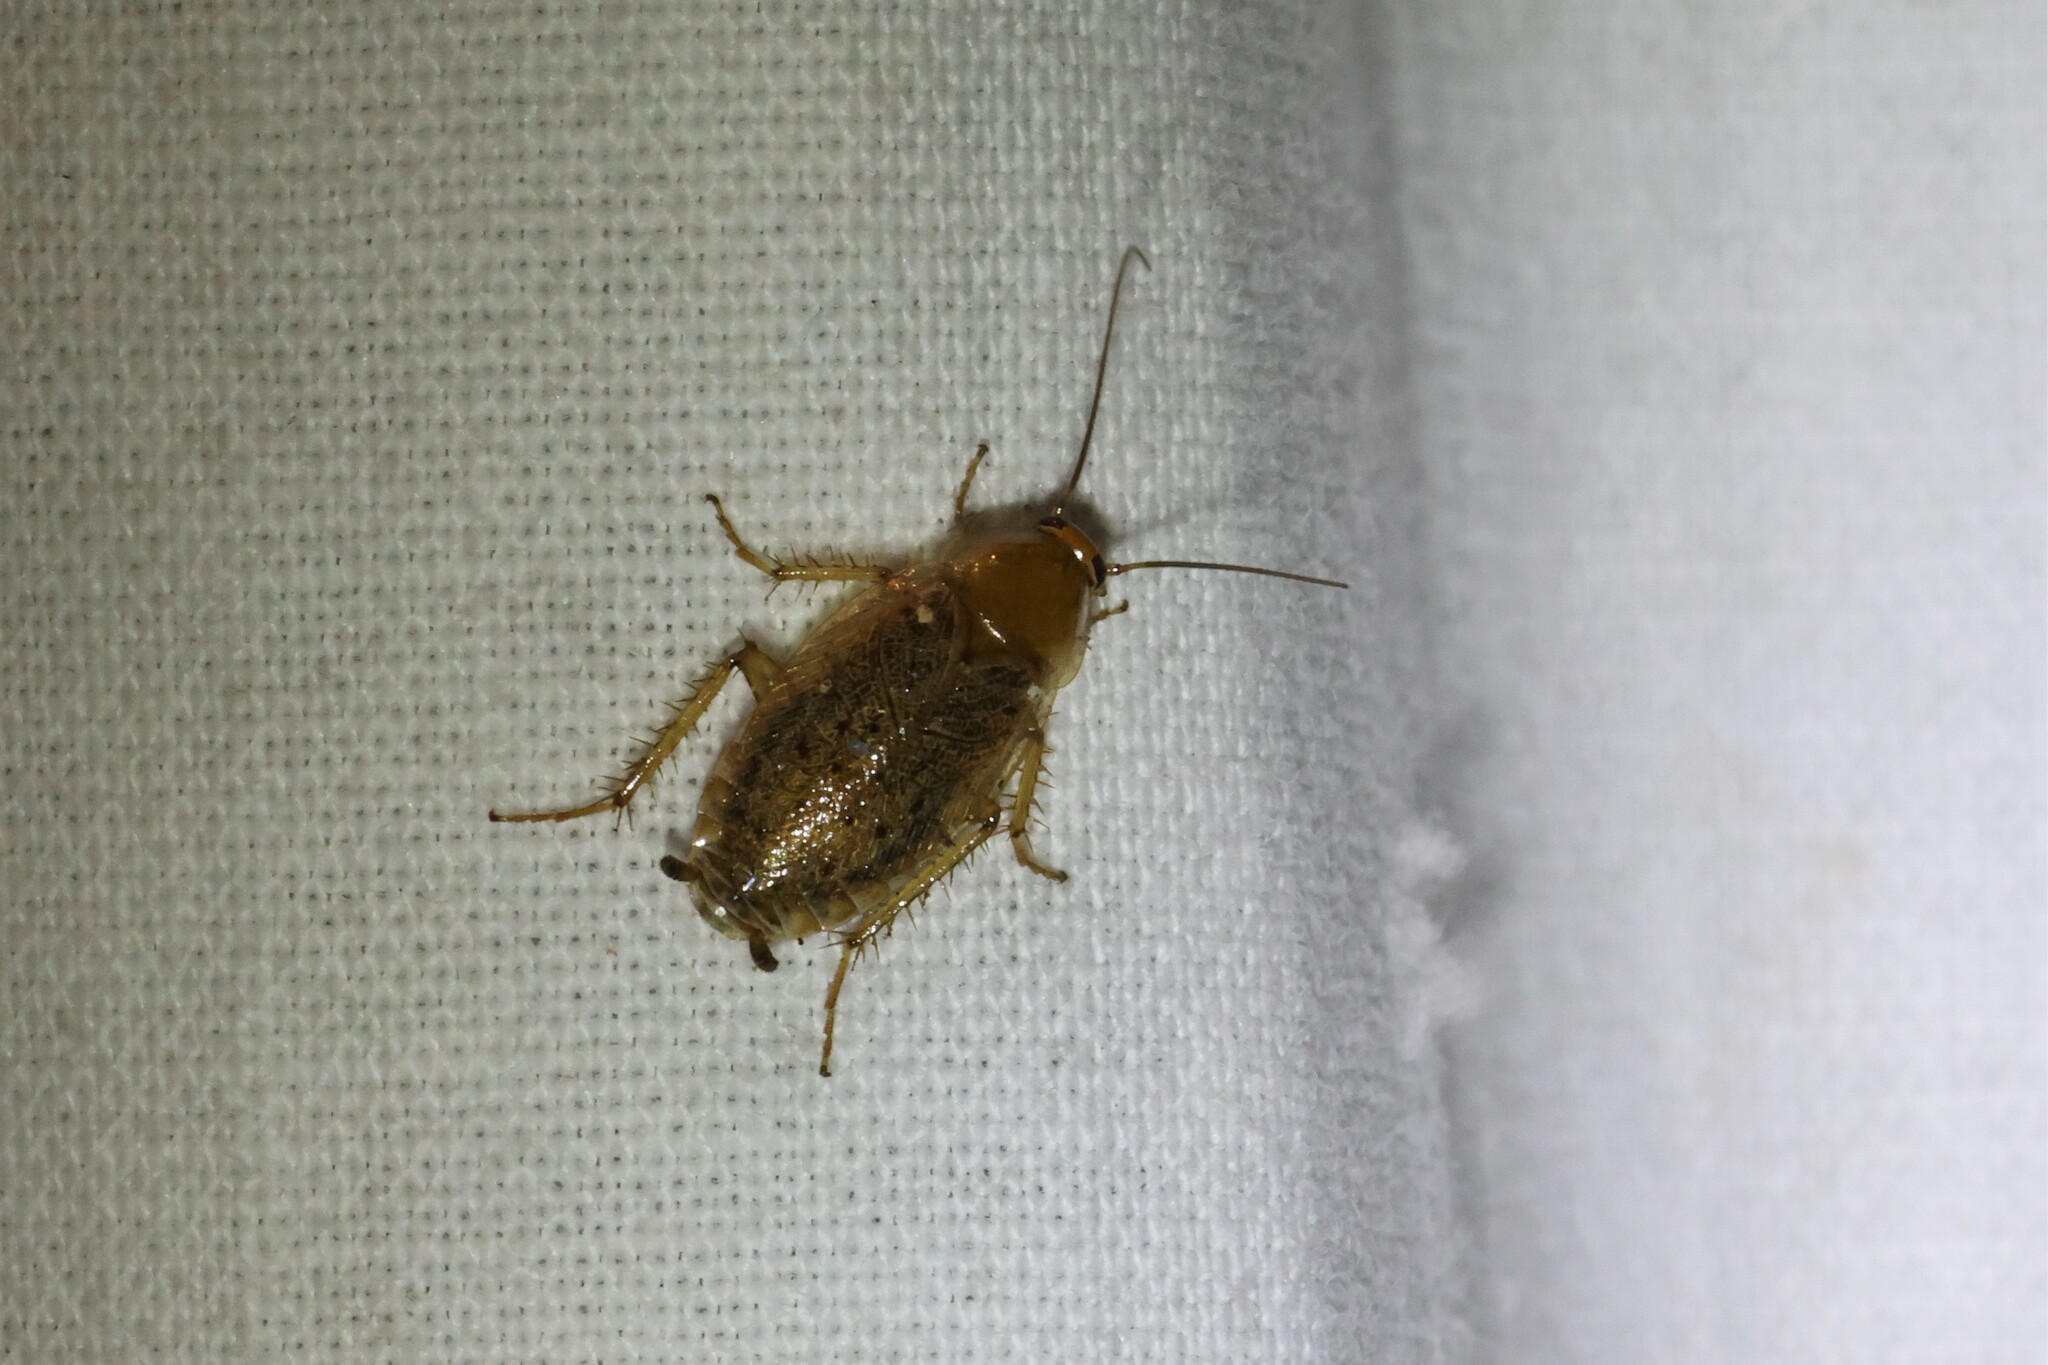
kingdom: Animalia
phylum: Arthropoda
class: Insecta
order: Blattodea
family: Ectobiidae
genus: Ectobius
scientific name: Ectobius lapponicus
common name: Dusky cockroach
